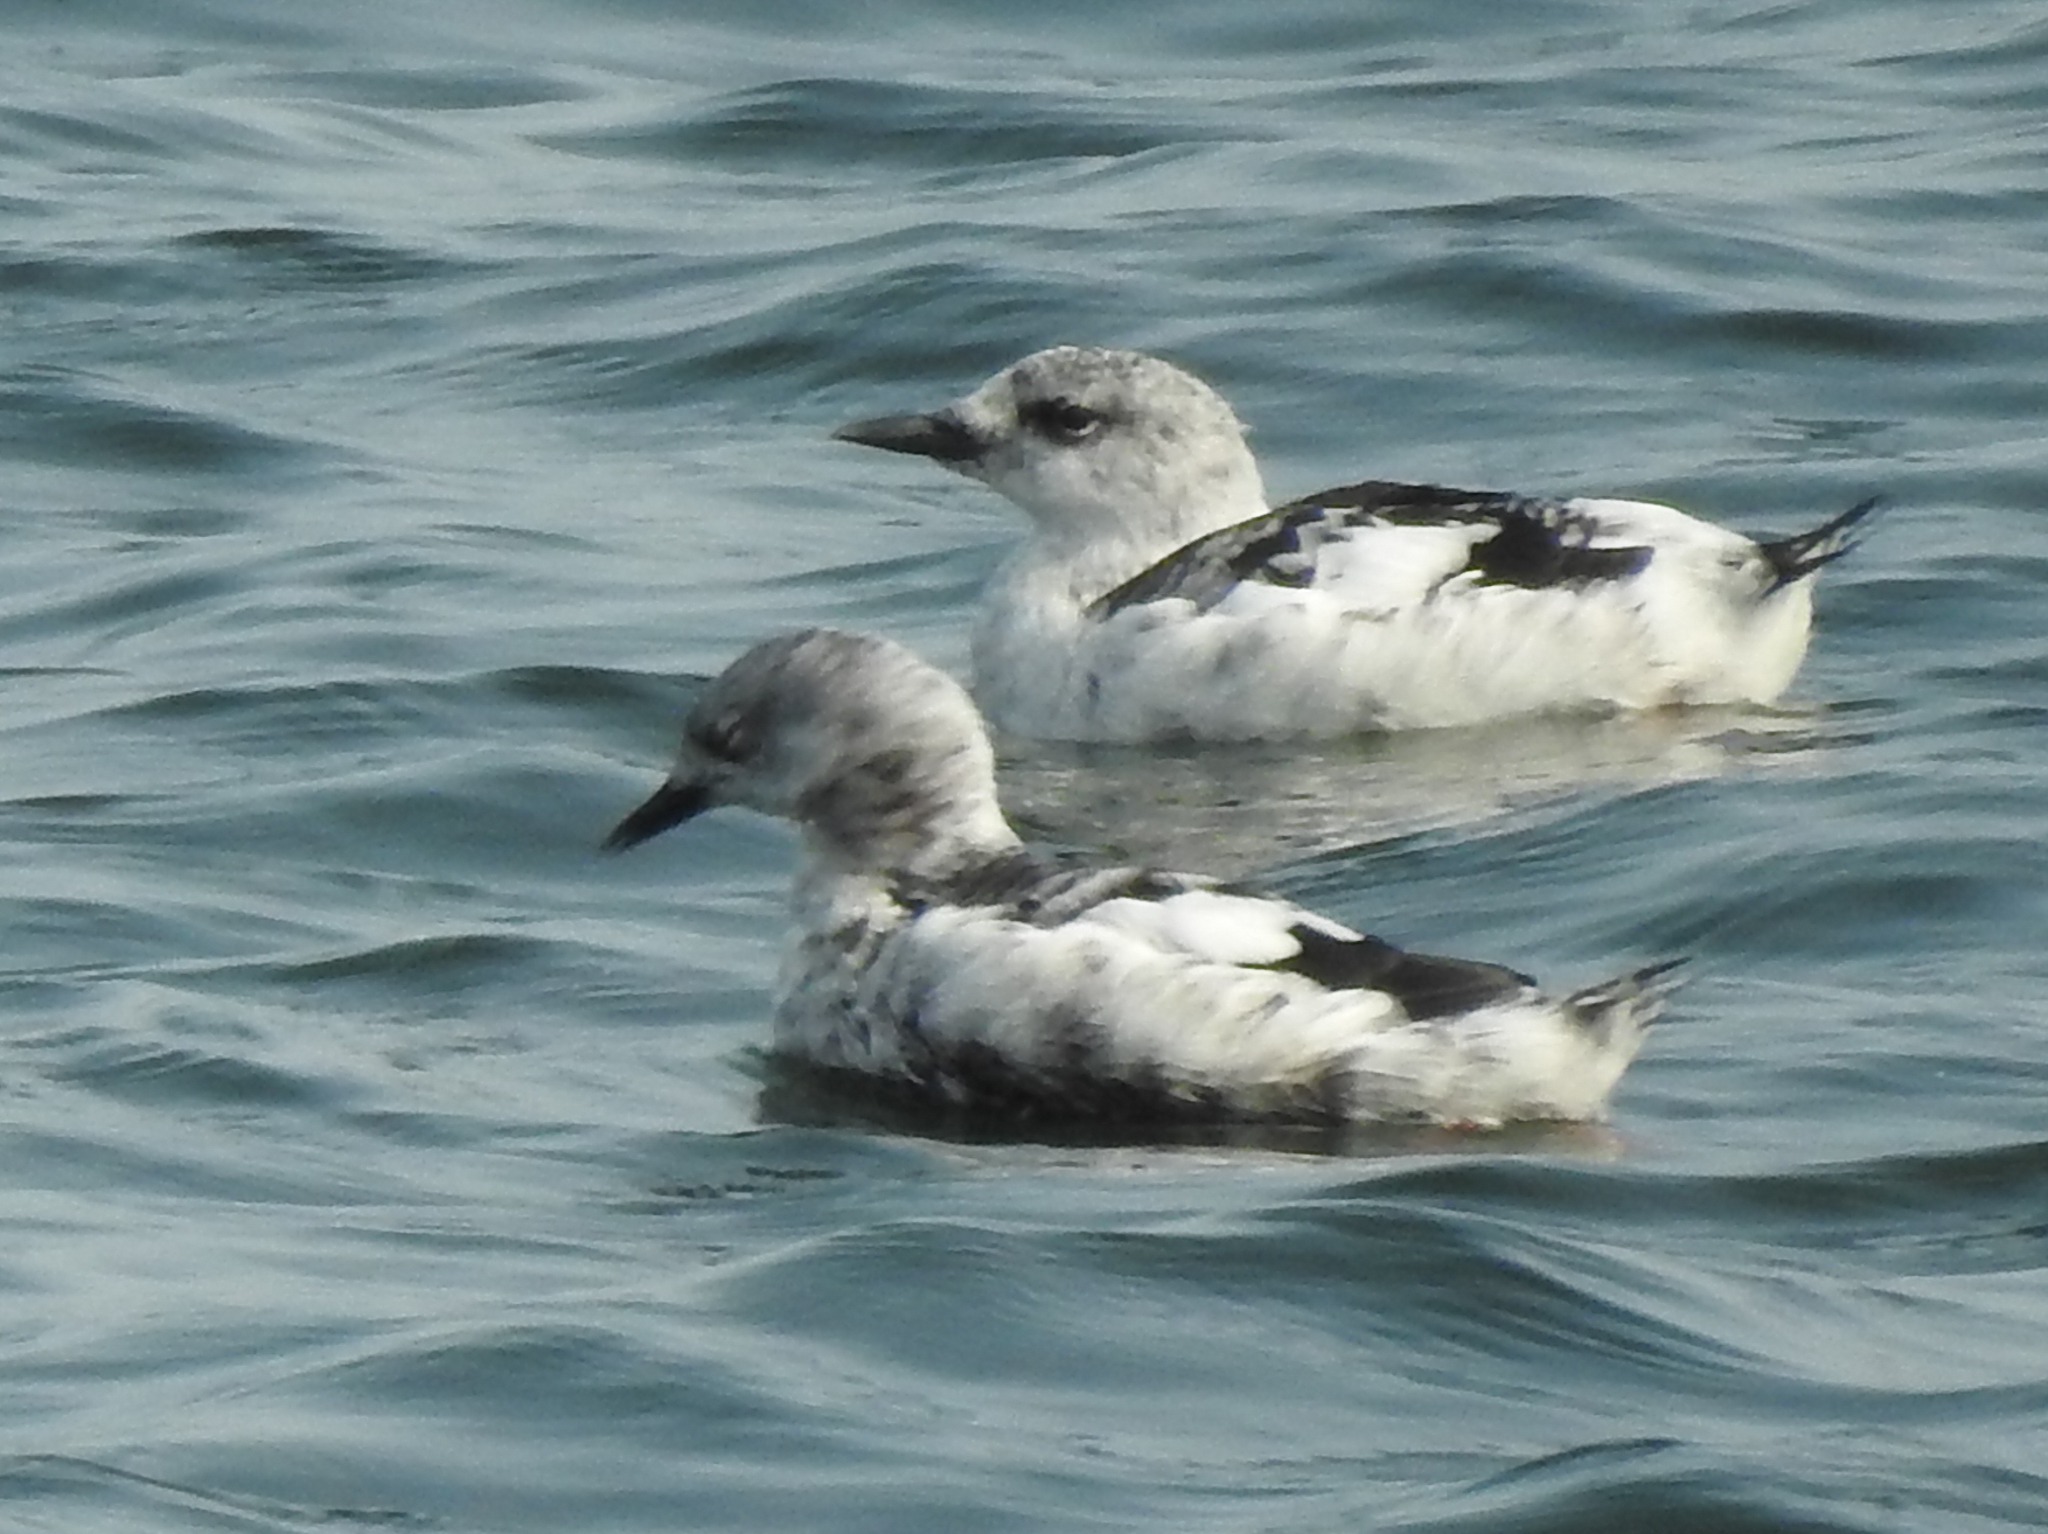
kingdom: Animalia
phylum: Chordata
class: Aves
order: Charadriiformes
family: Alcidae
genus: Cepphus
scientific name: Cepphus grylle
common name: Black guillemot
